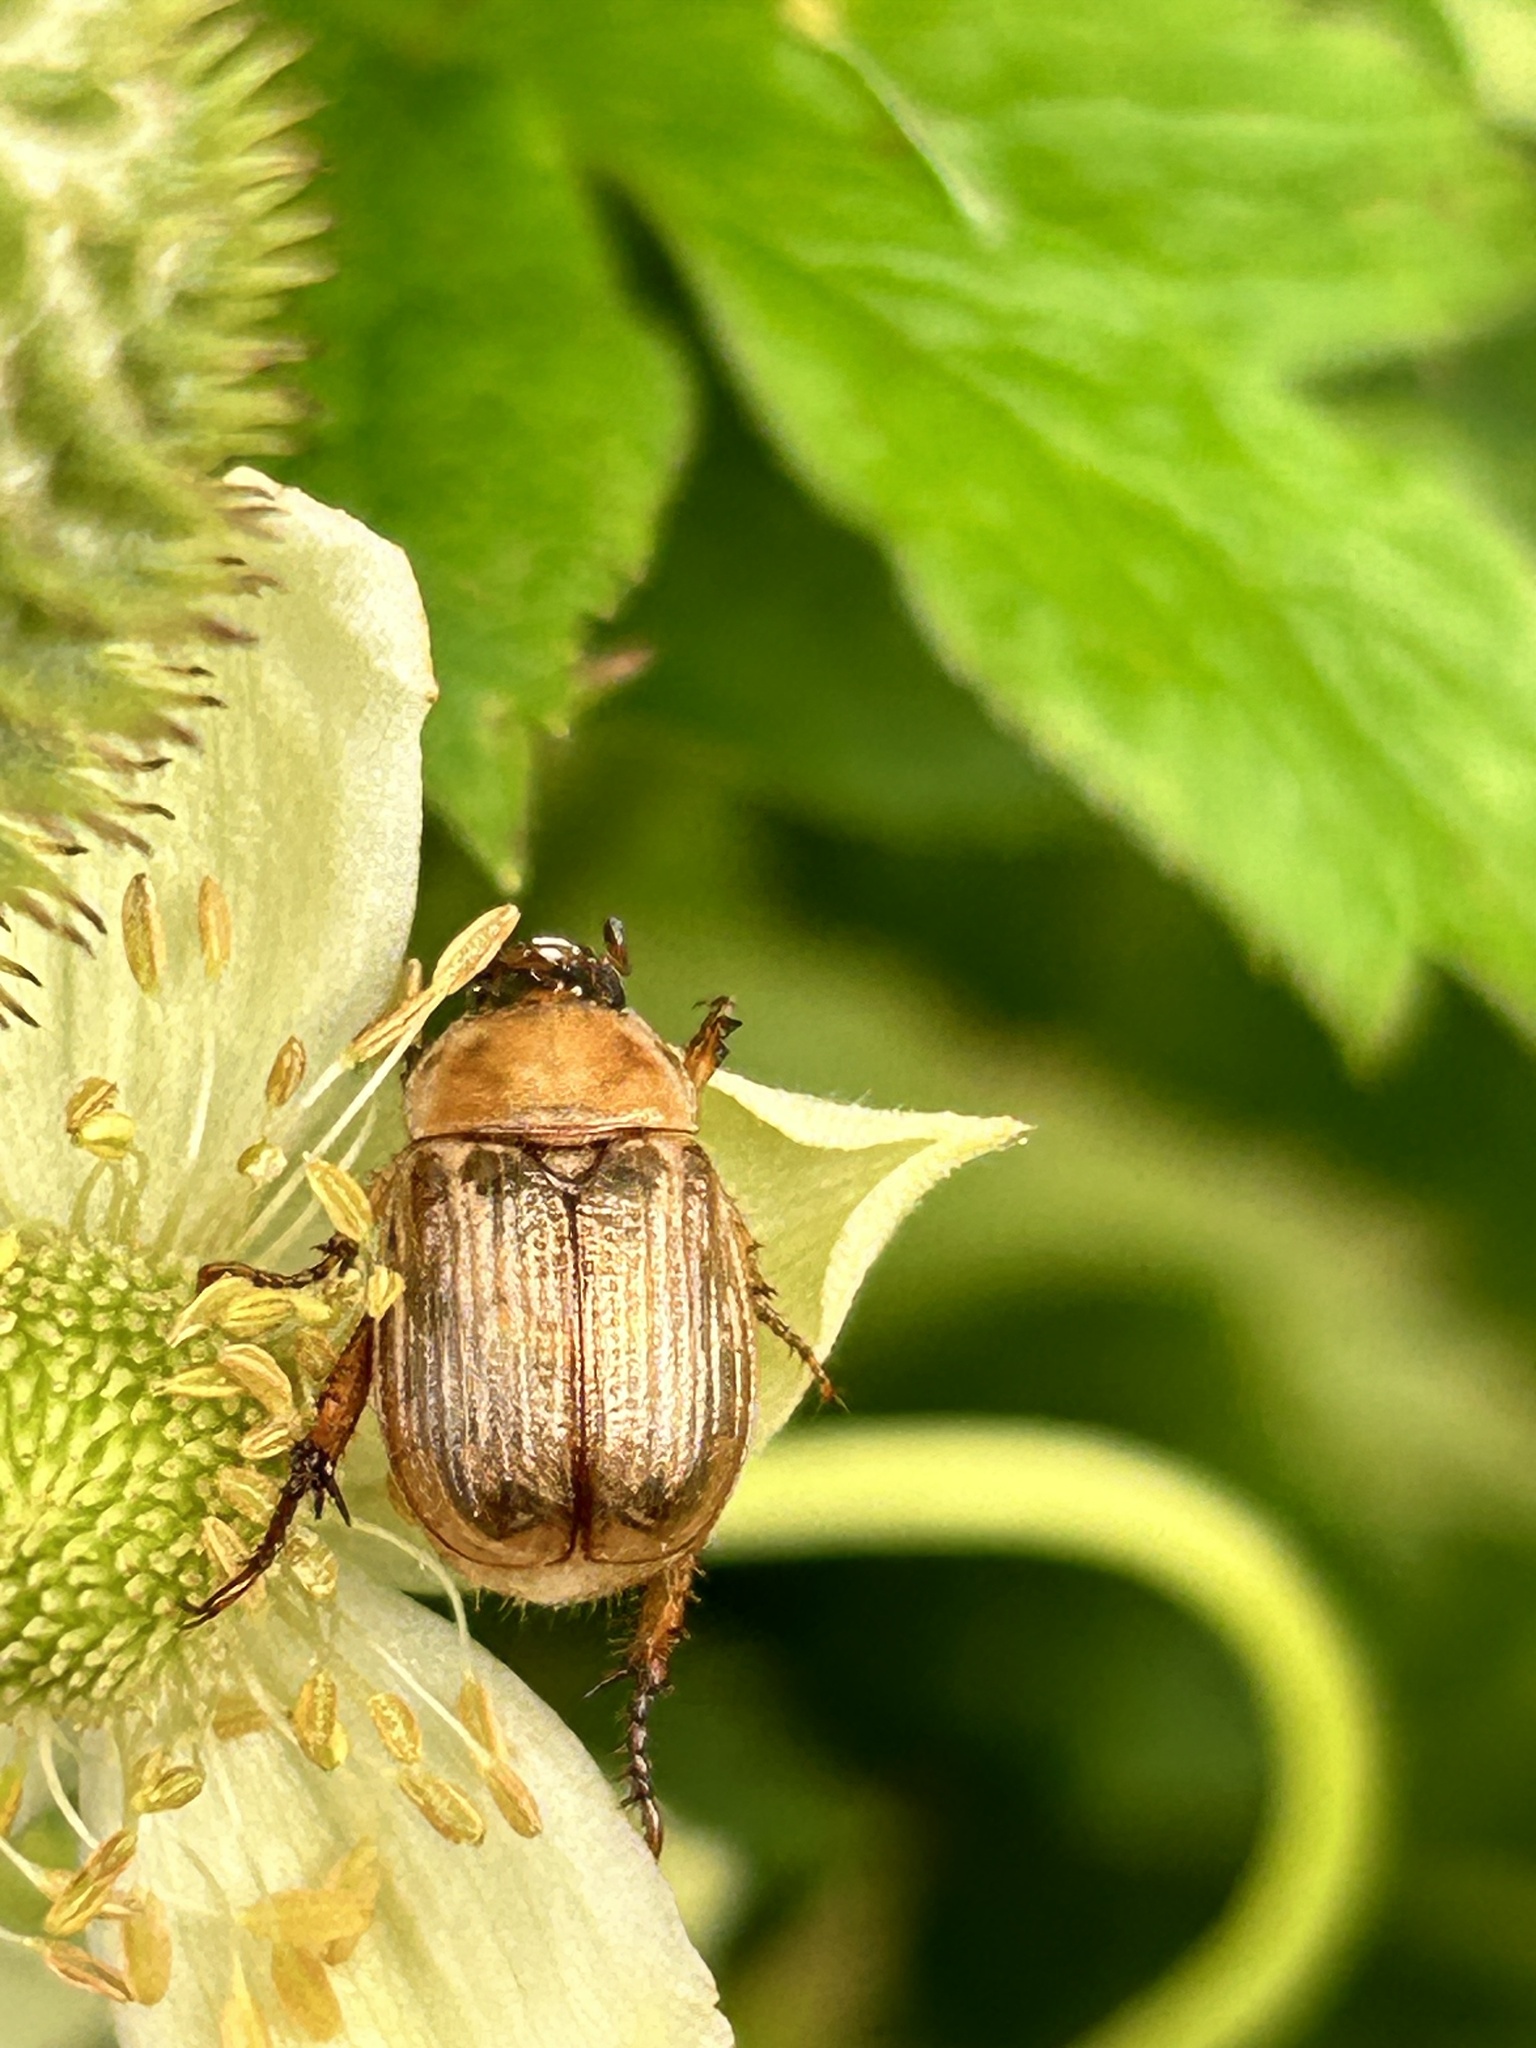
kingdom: Animalia
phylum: Arthropoda
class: Insecta
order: Coleoptera
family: Scarabaeidae
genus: Exomala
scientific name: Exomala orientalis
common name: Oriental beetle
